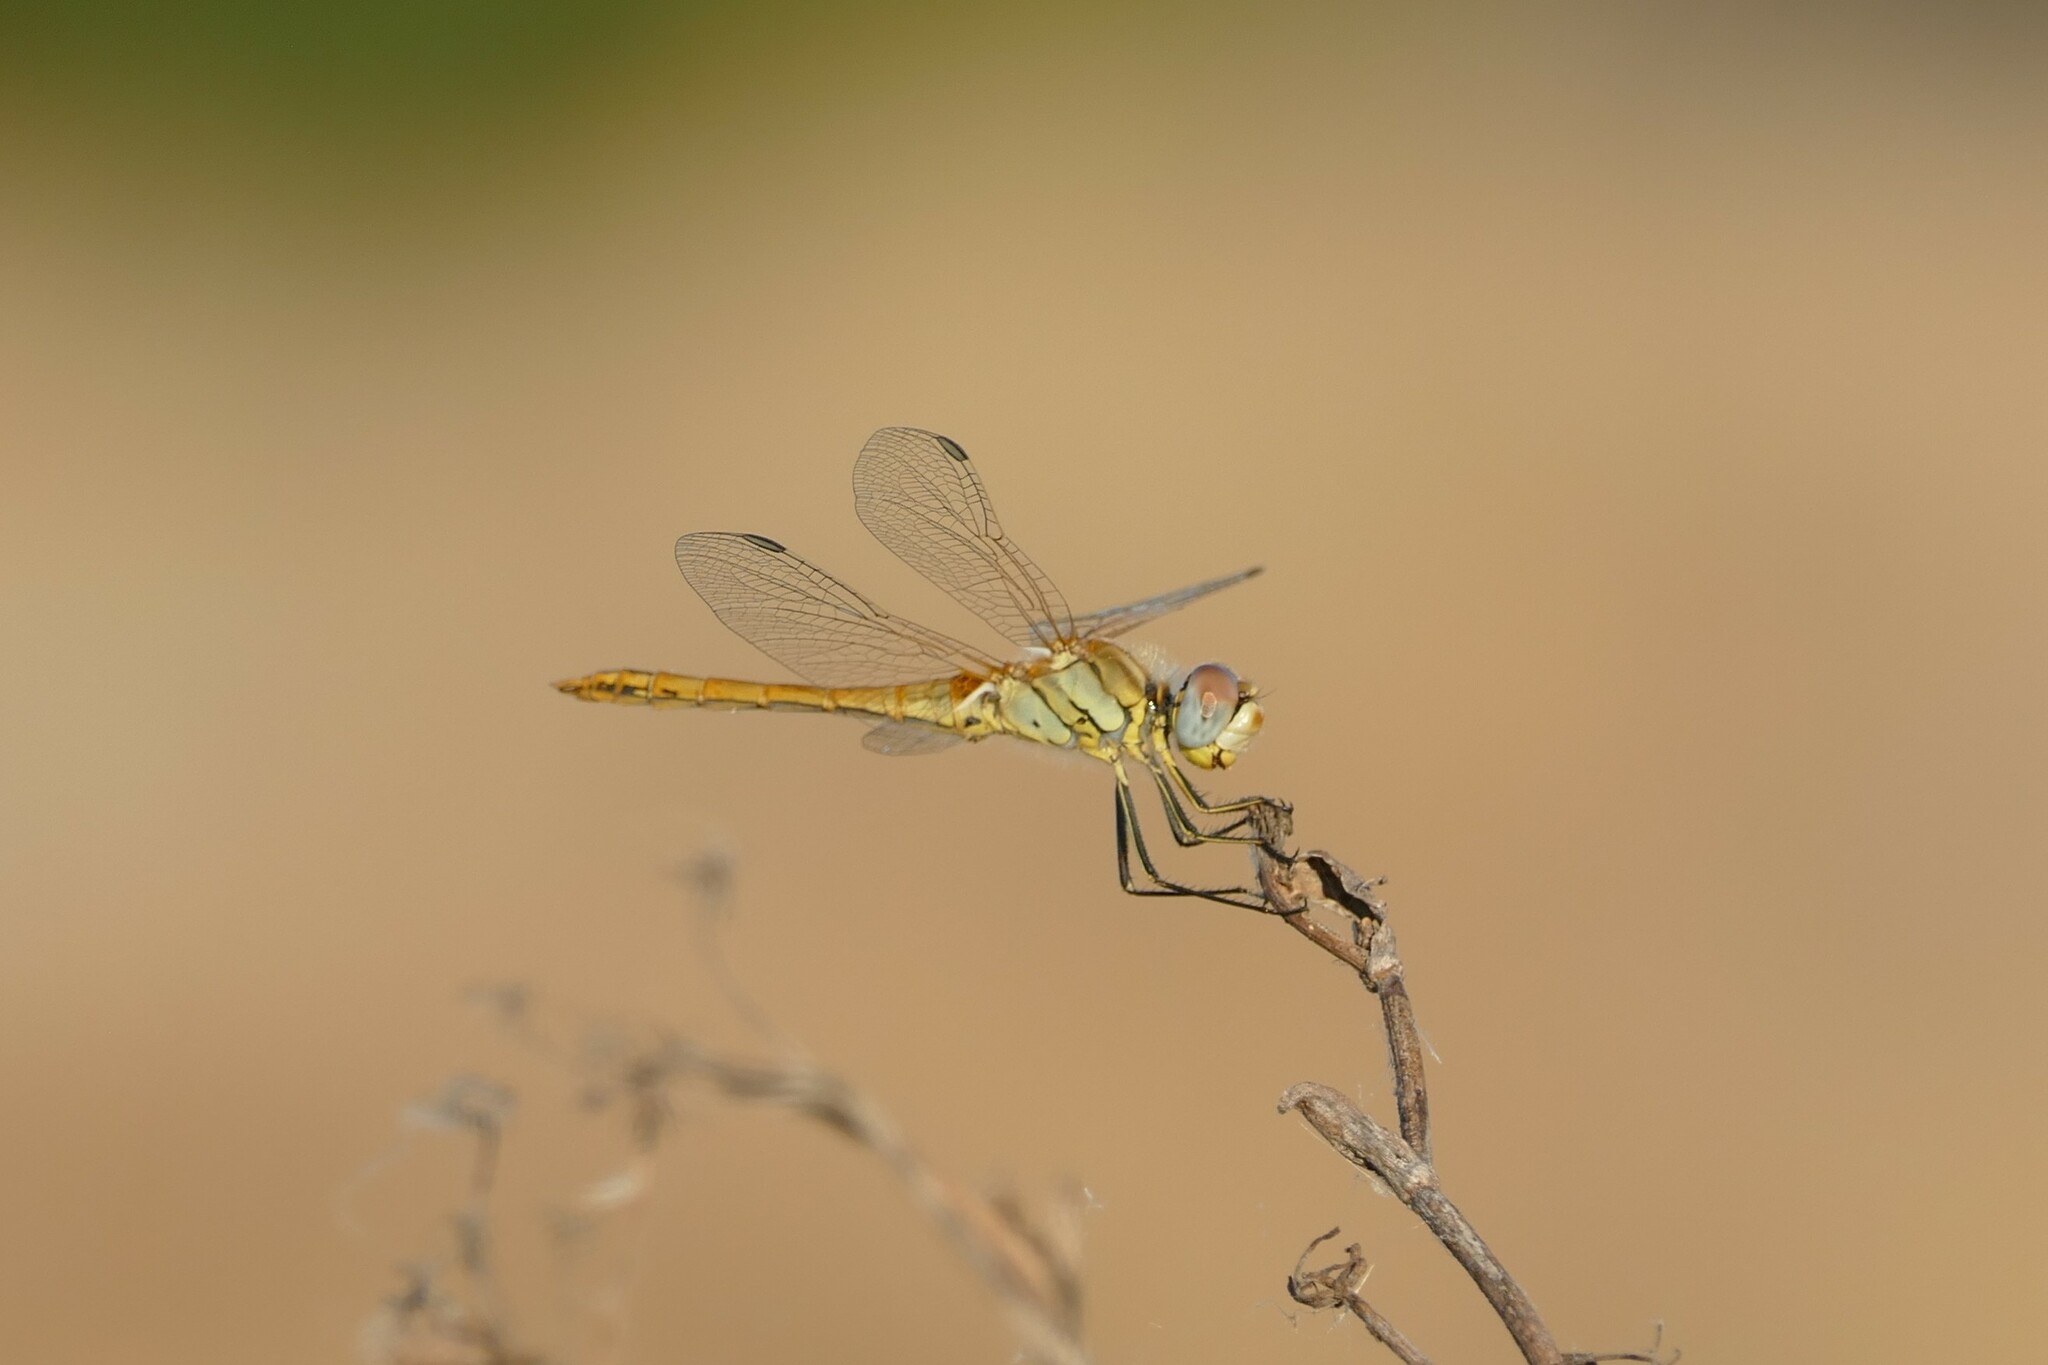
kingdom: Animalia
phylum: Arthropoda
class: Insecta
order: Odonata
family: Libellulidae
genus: Sympetrum
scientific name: Sympetrum fonscolombii
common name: Red-veined darter
